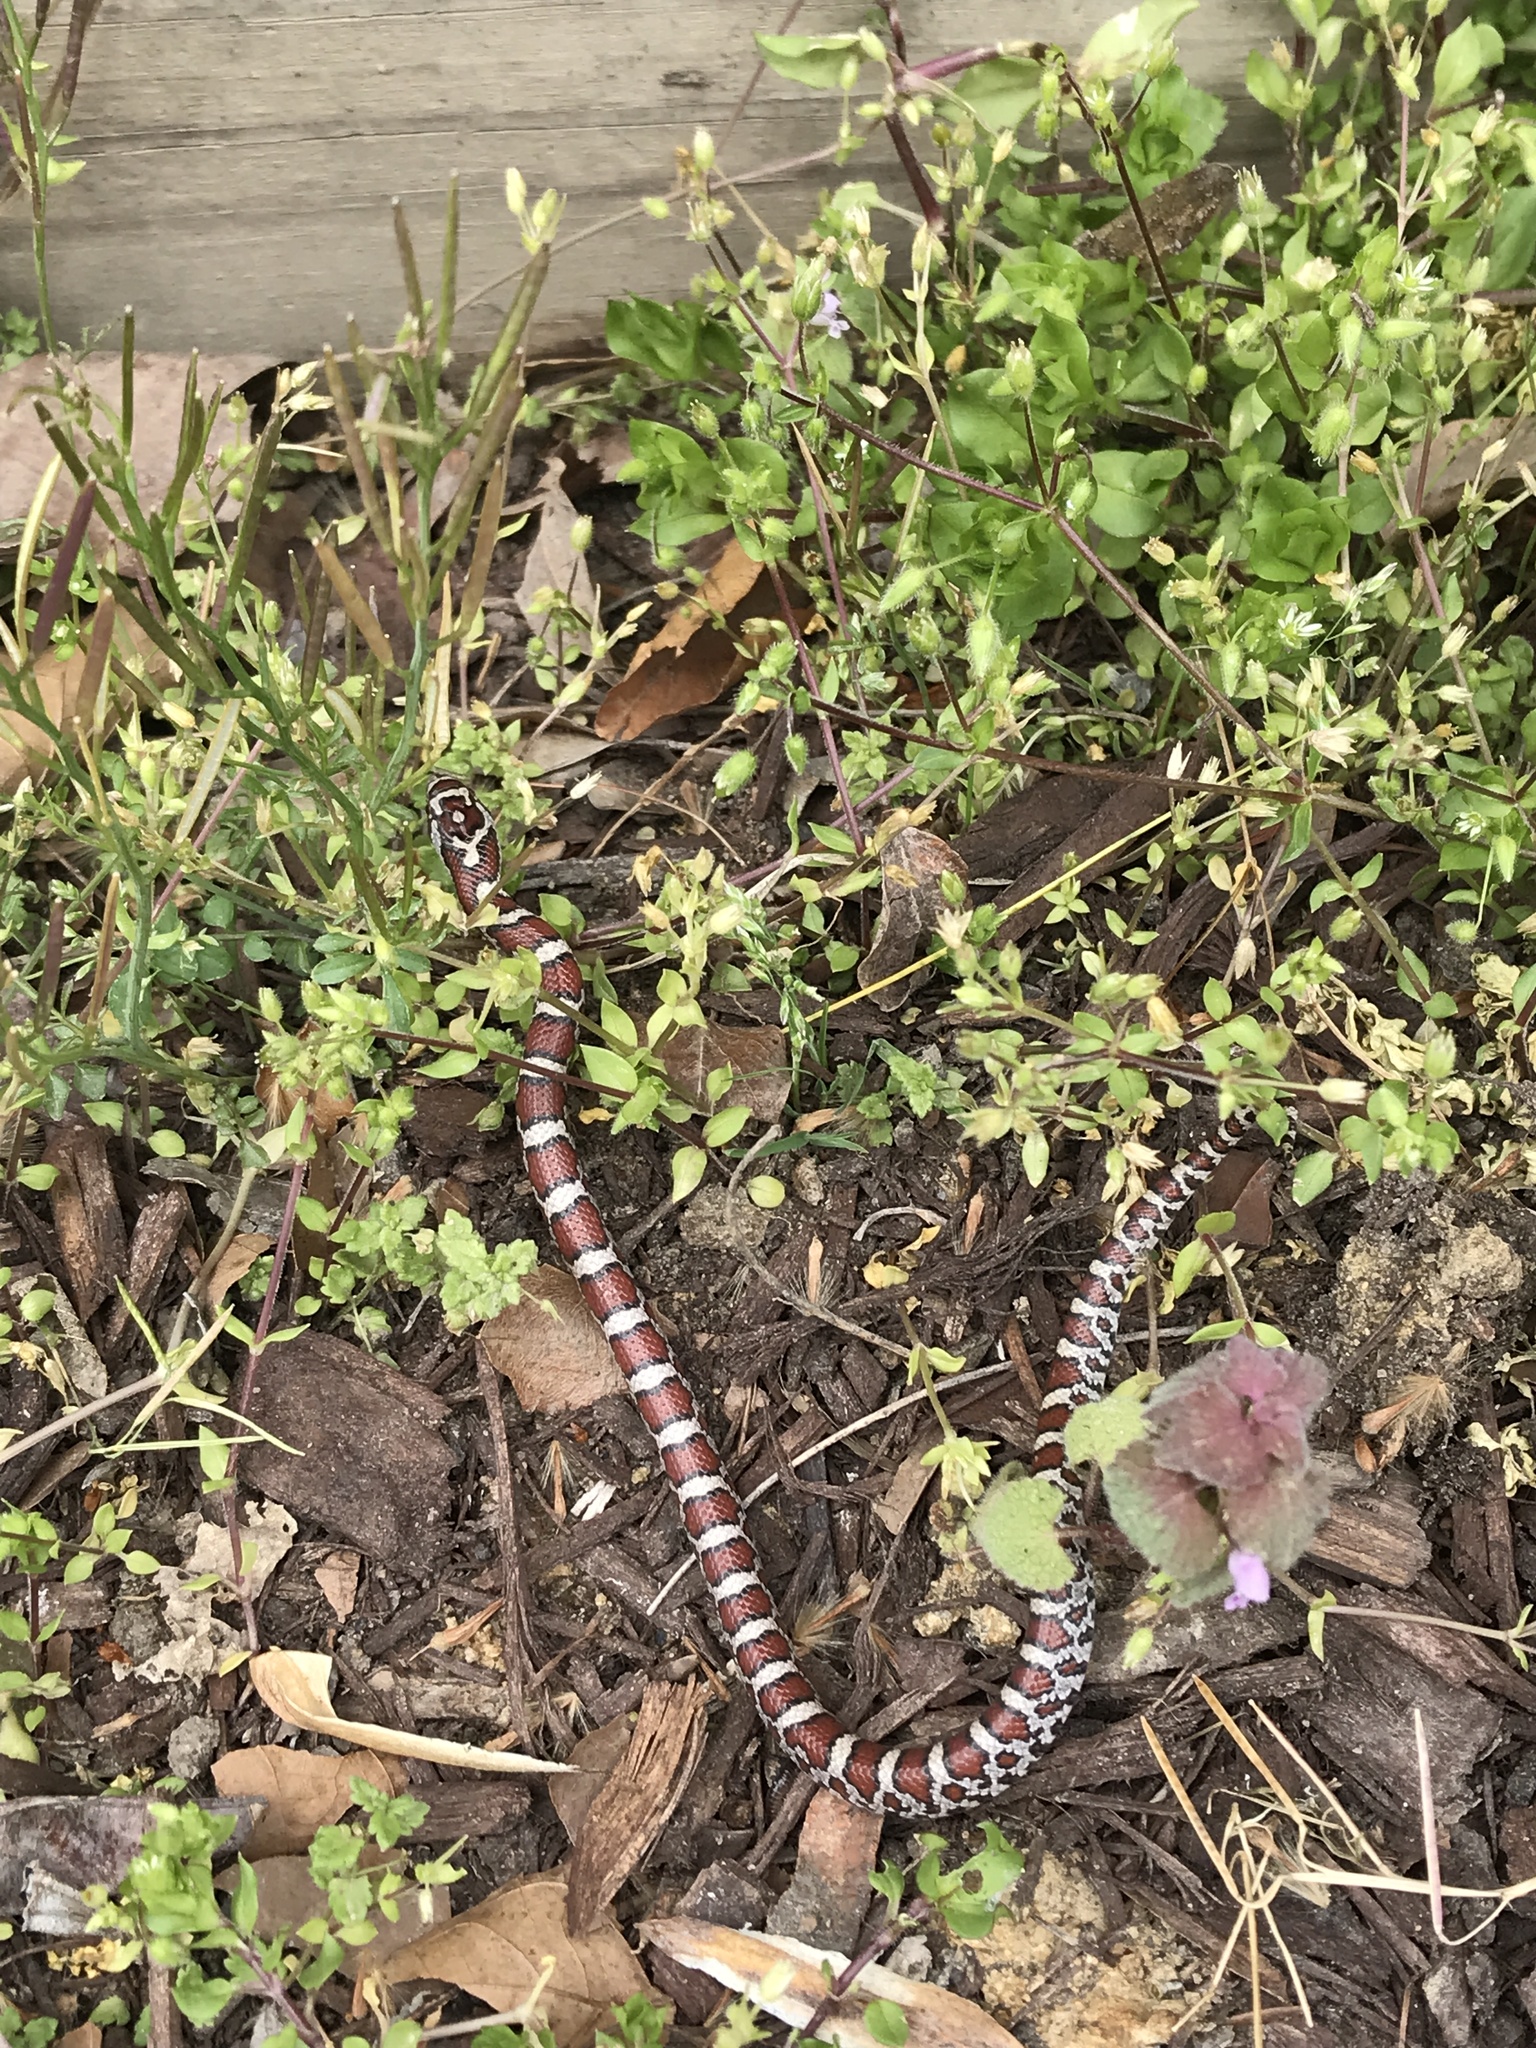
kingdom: Animalia
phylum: Chordata
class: Squamata
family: Colubridae
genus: Lampropeltis
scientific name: Lampropeltis triangulum
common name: Eastern milksnake
